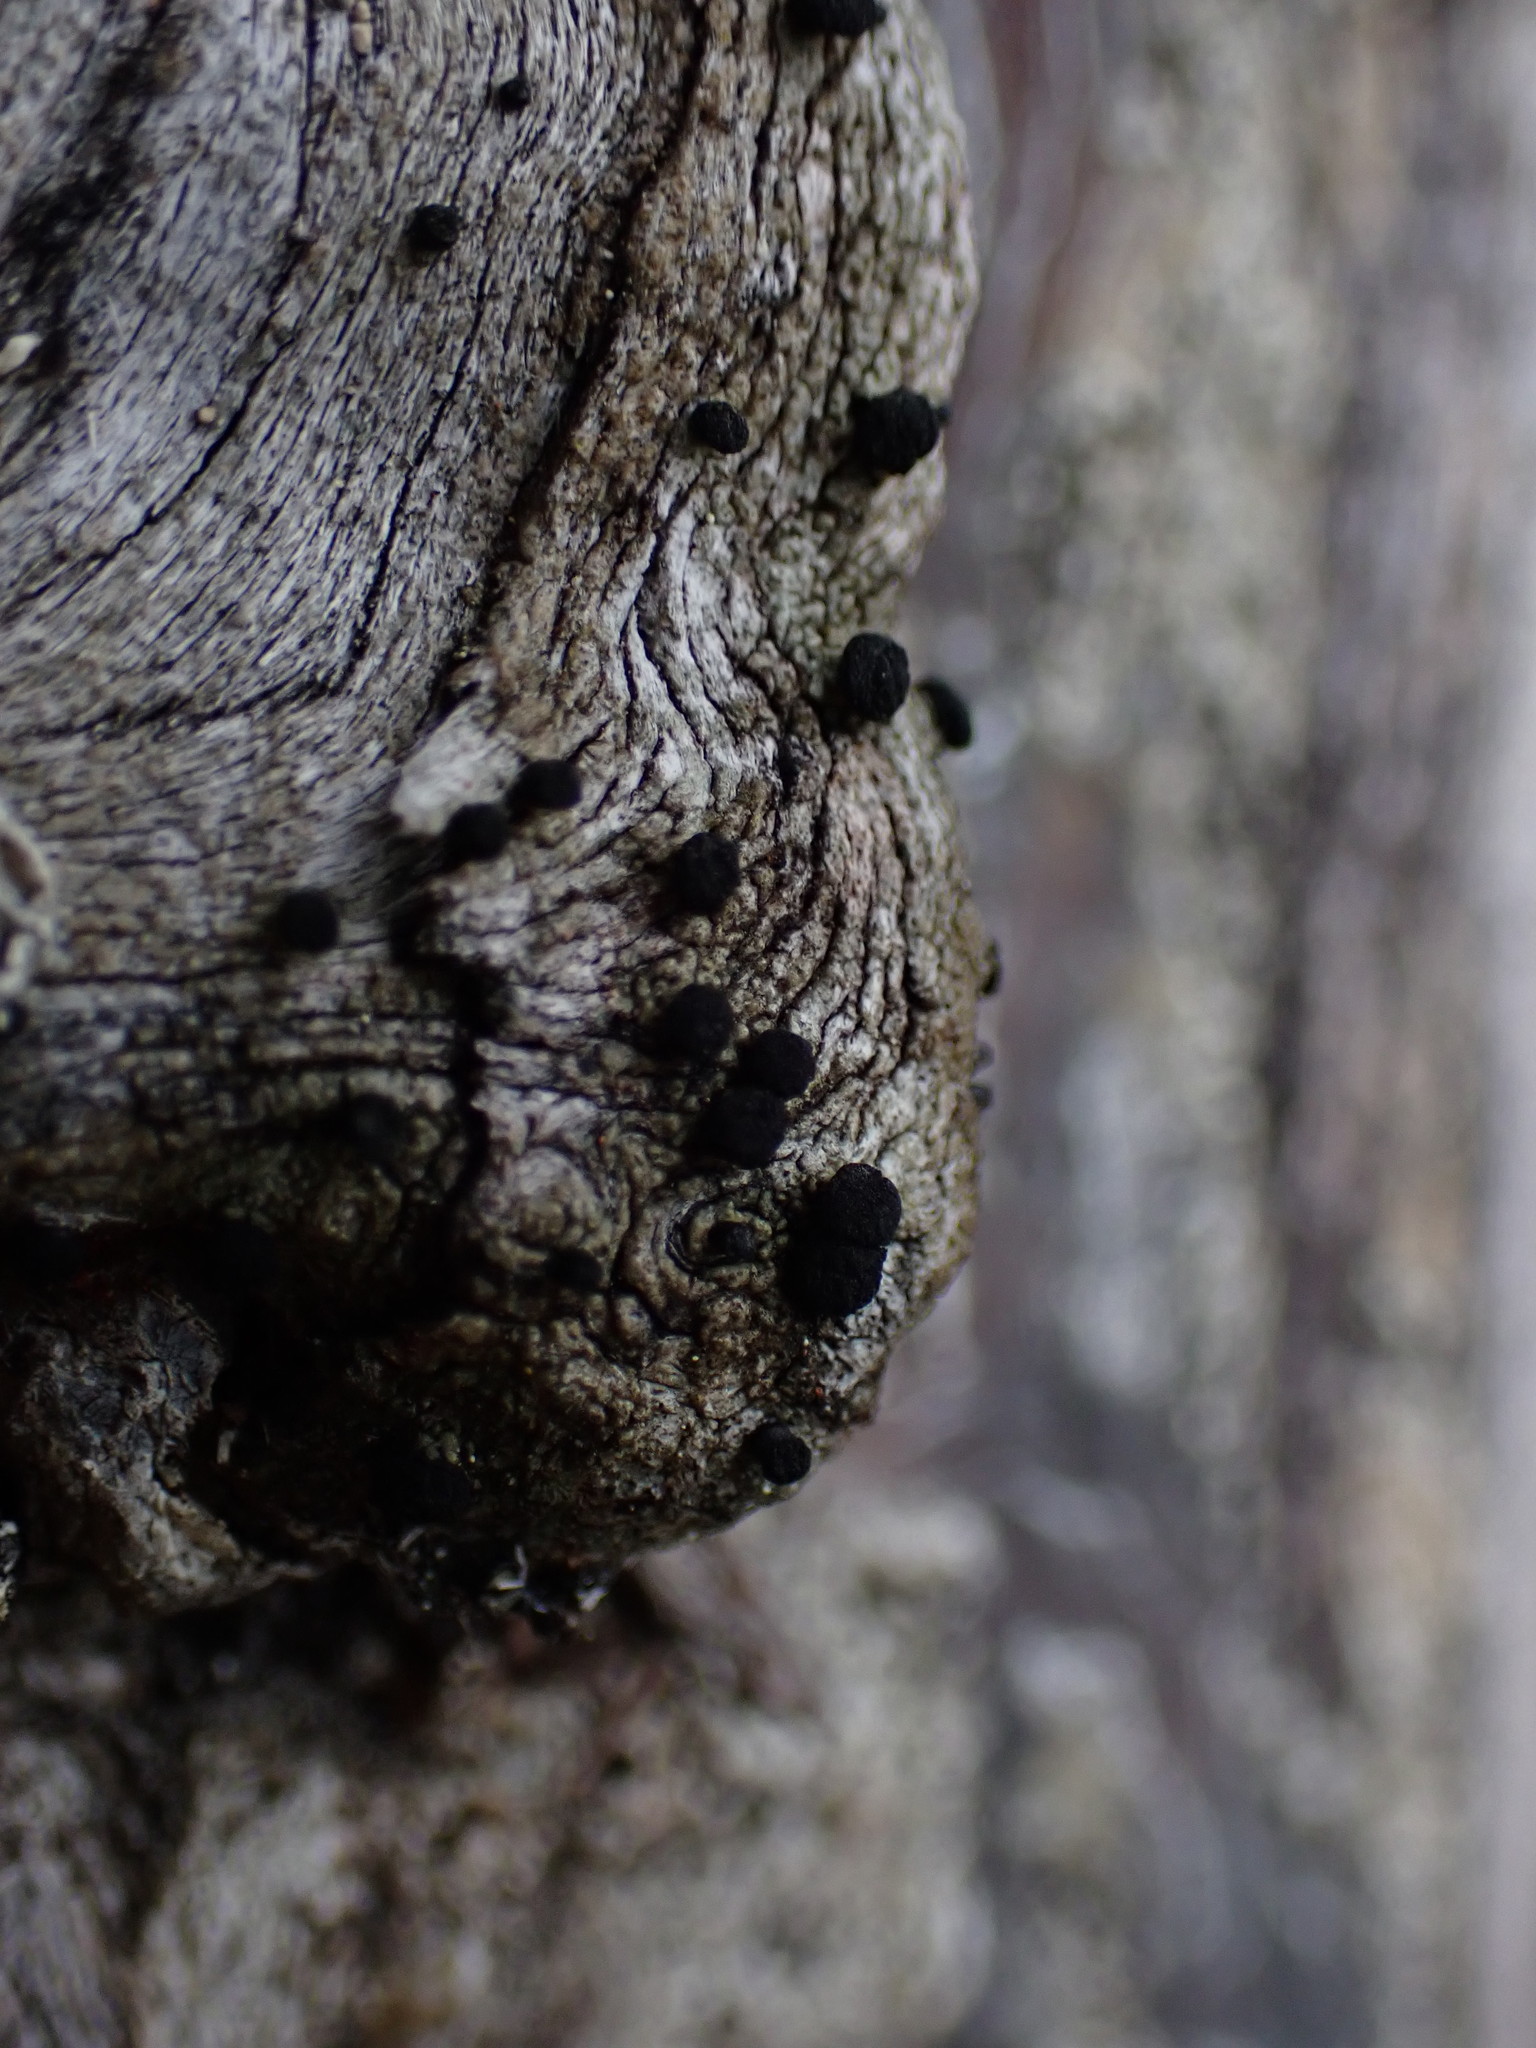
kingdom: Fungi
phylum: Ascomycota
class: Lecanoromycetes
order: Caliciales
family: Caliciaceae
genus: Acolium
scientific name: Acolium inquinans
